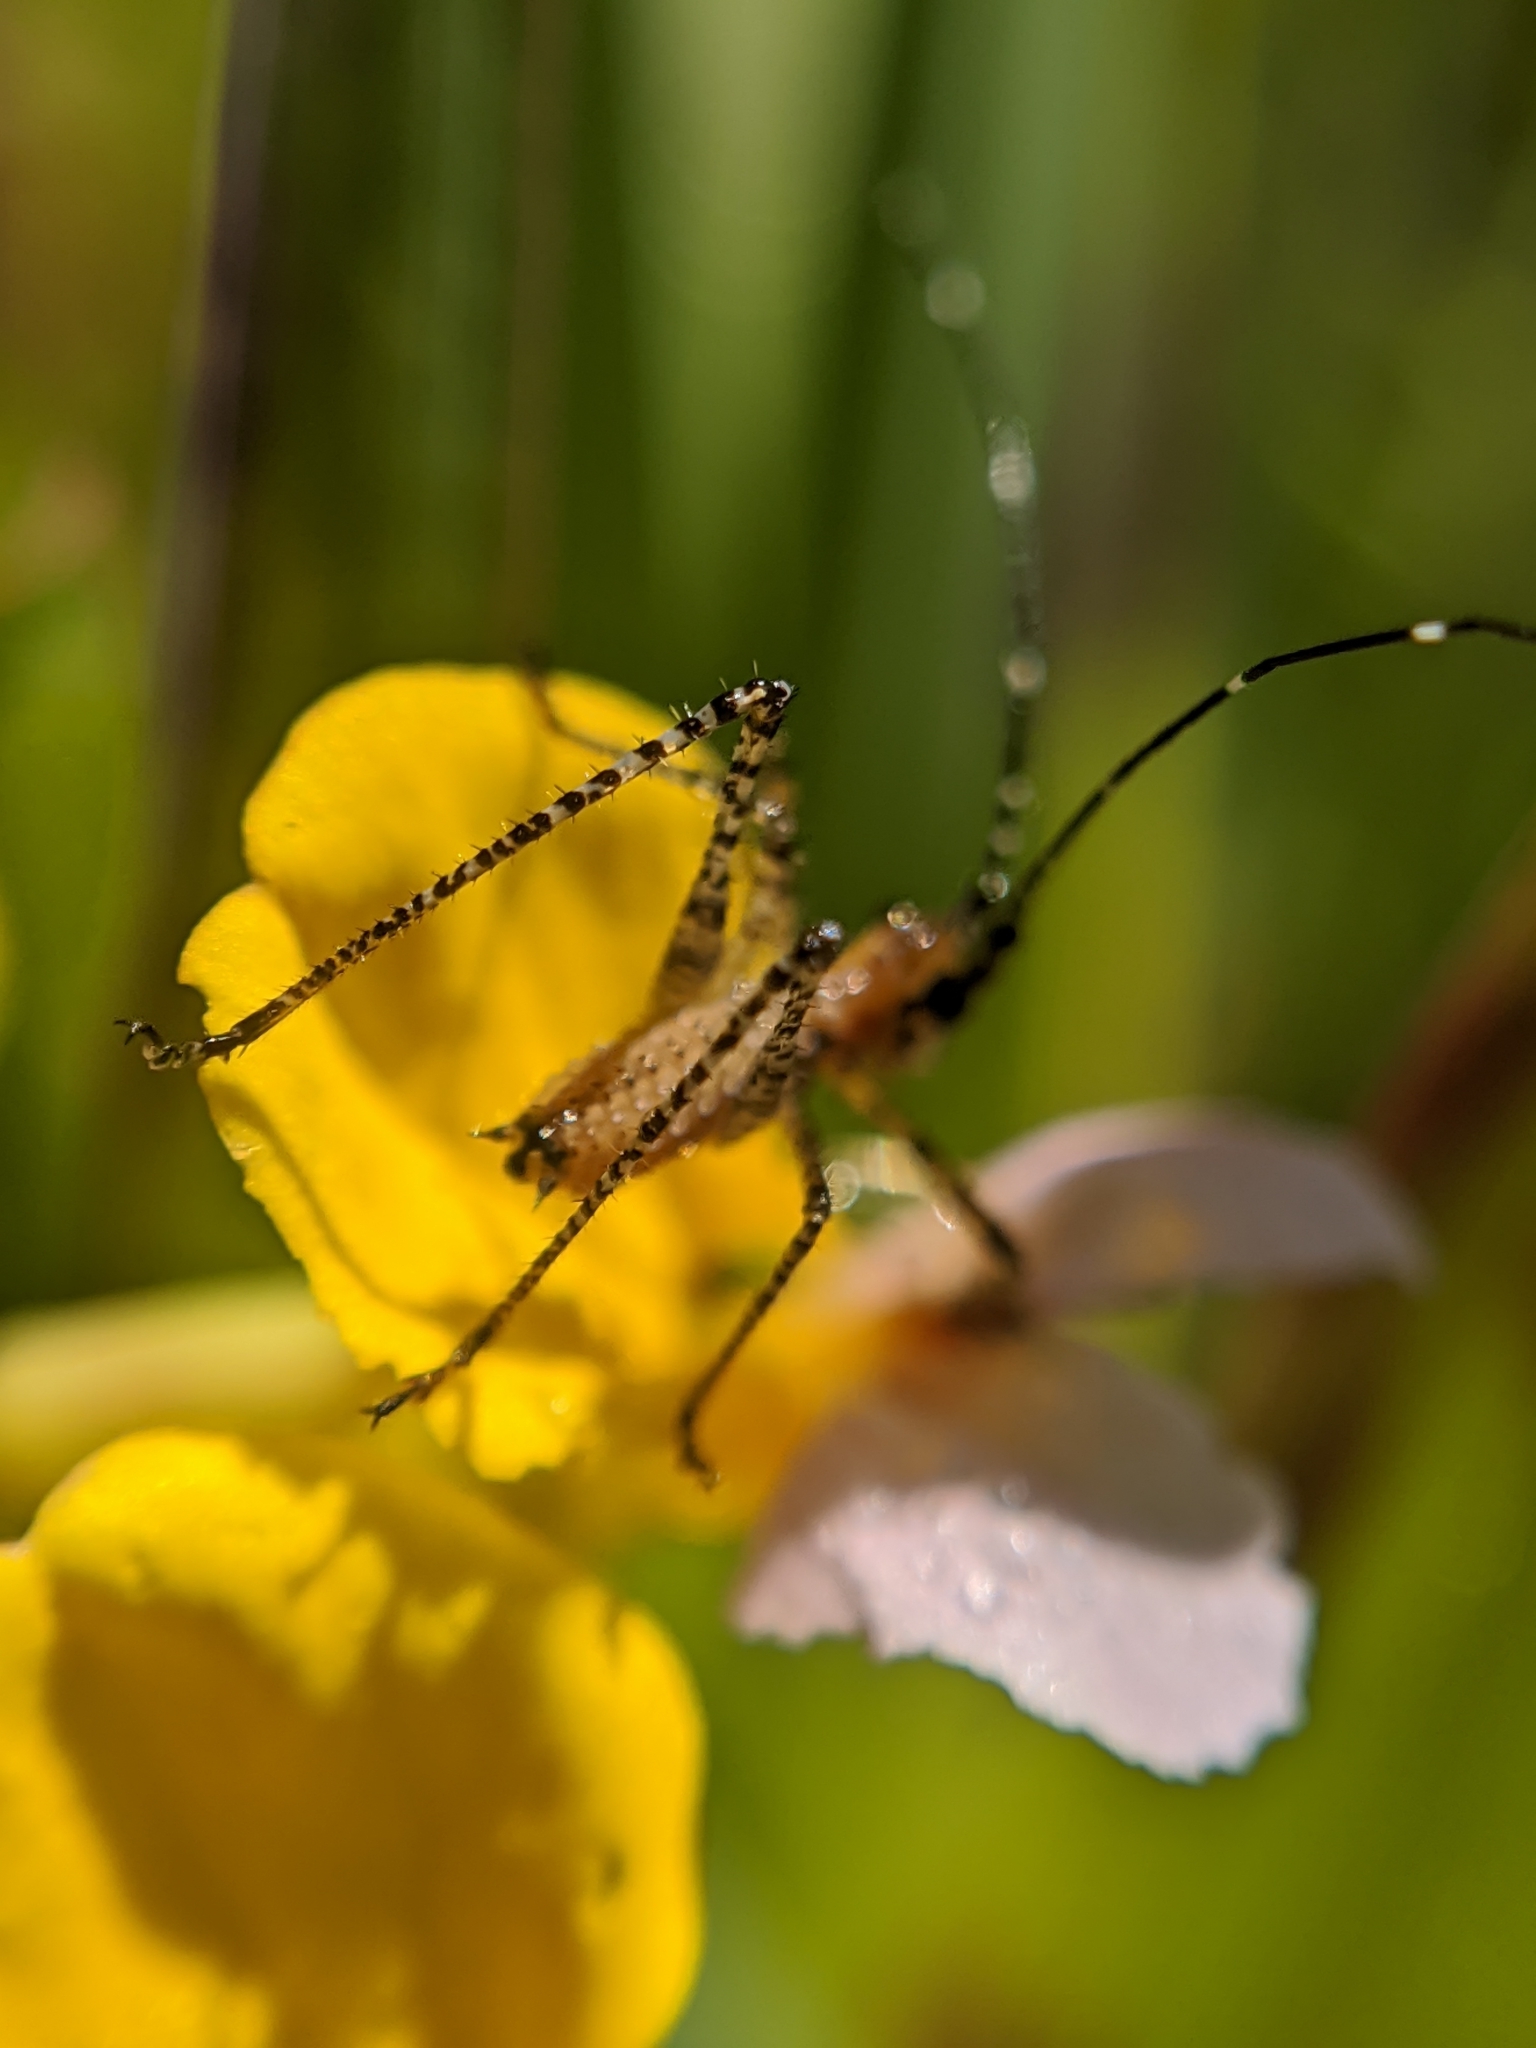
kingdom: Plantae
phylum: Tracheophyta
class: Magnoliopsida
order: Fabales
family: Fabaceae
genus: Hosackia
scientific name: Hosackia gracilis
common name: Seaside bird's-foot lotus
